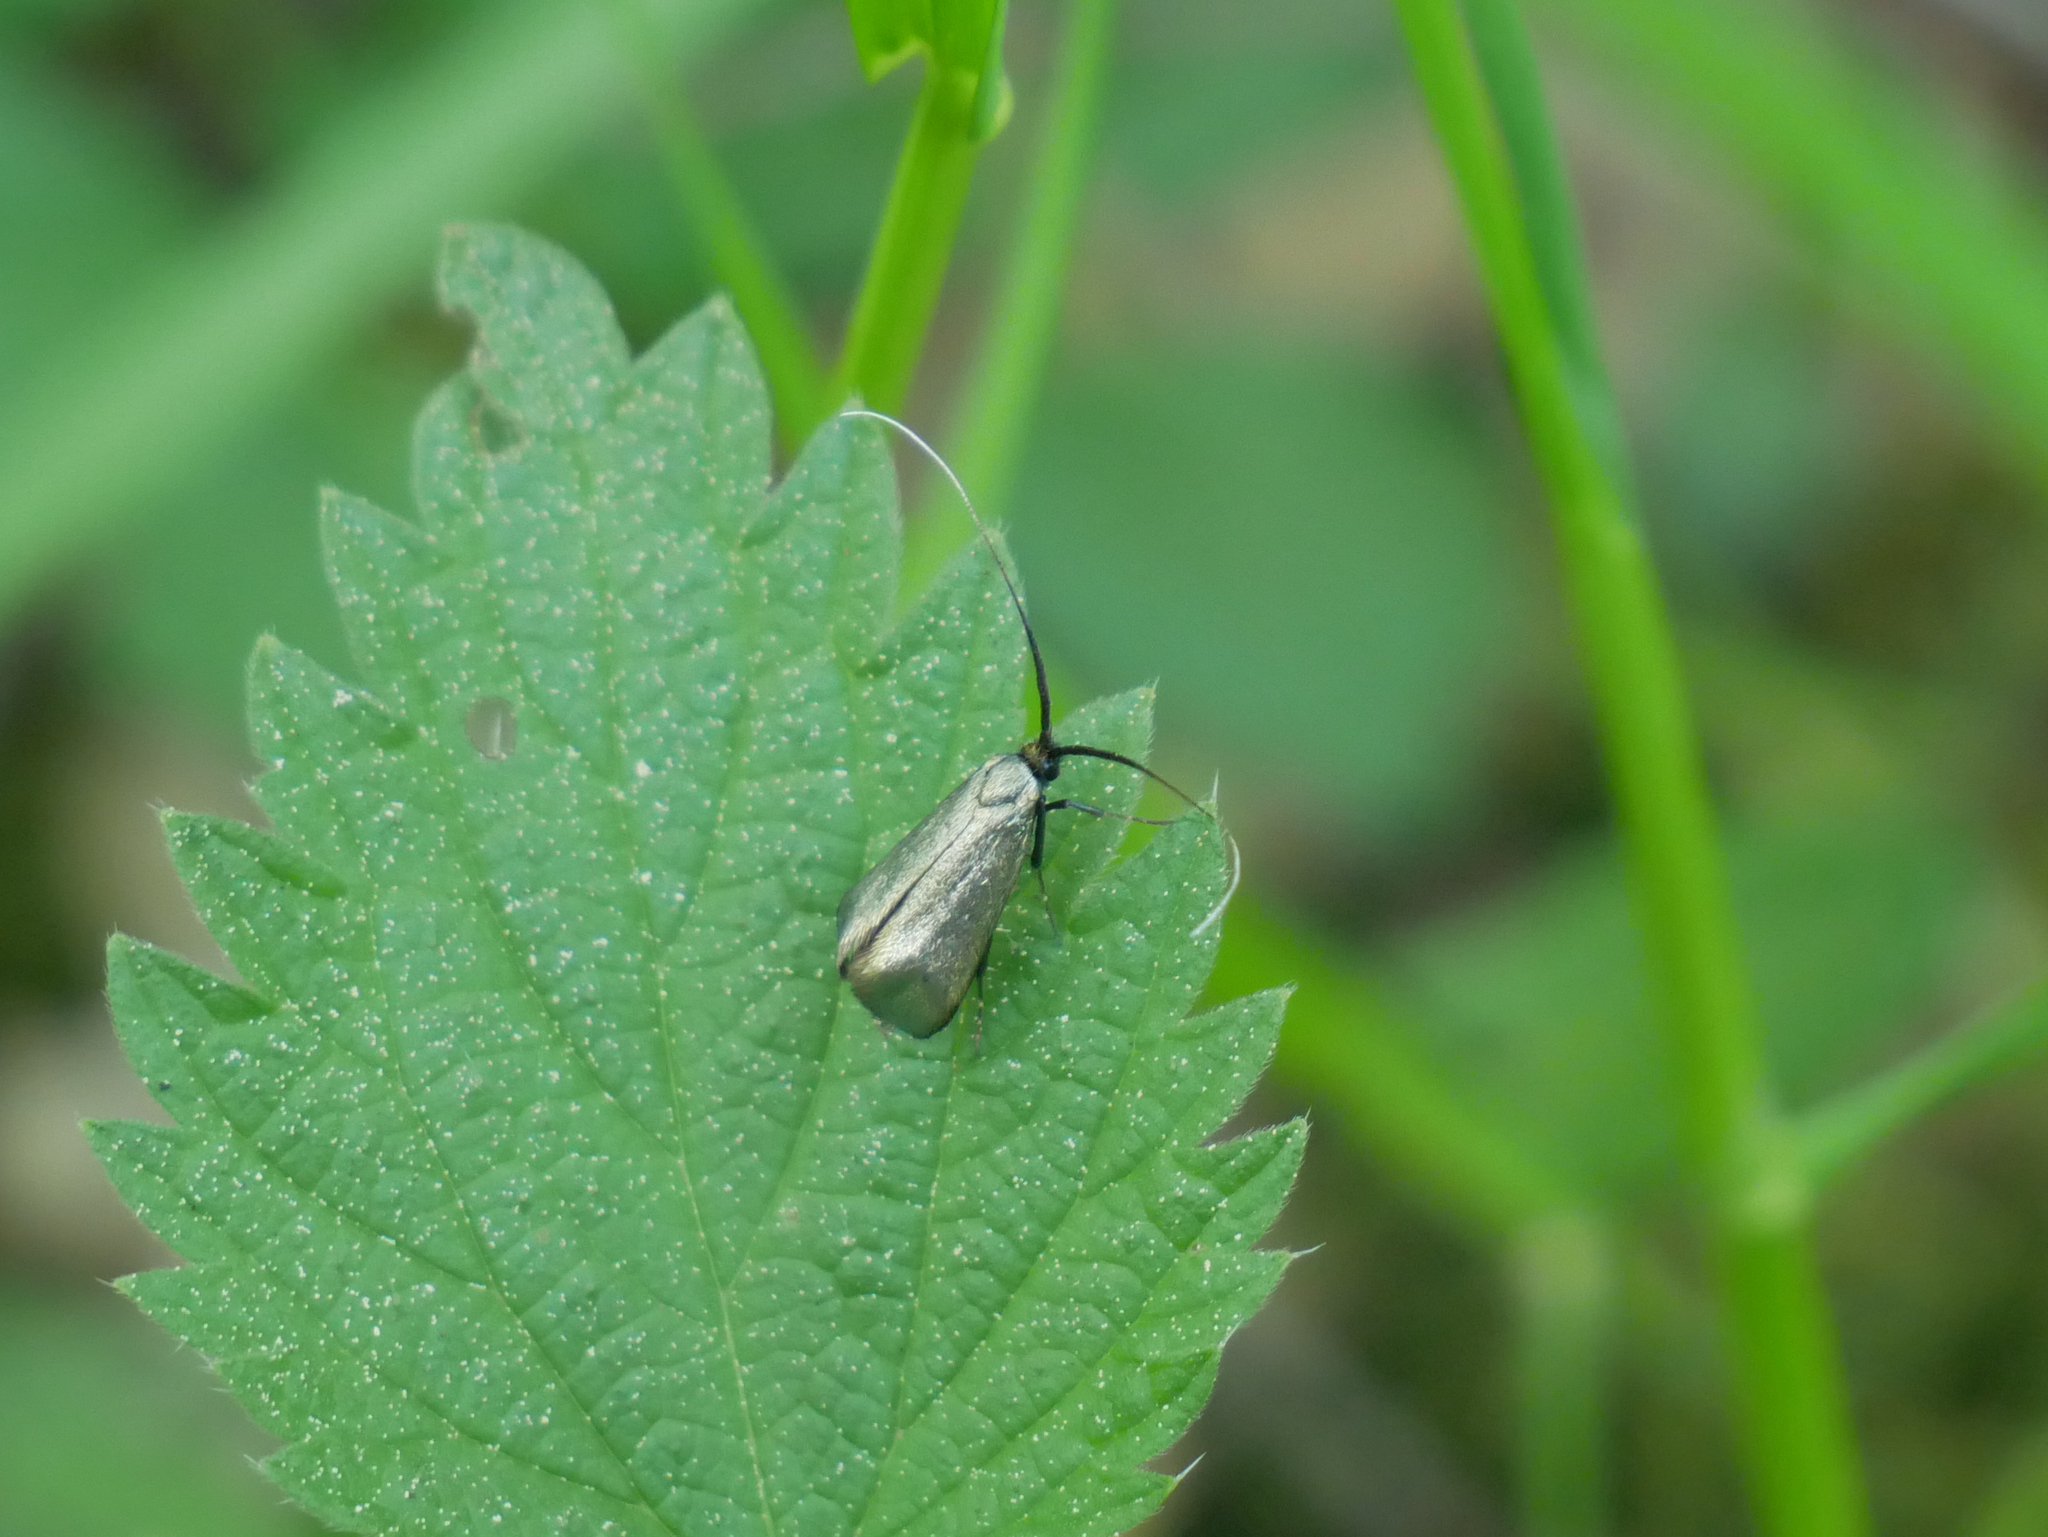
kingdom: Animalia
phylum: Arthropoda
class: Insecta
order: Lepidoptera
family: Adelidae
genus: Adela
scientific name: Adela viridella
